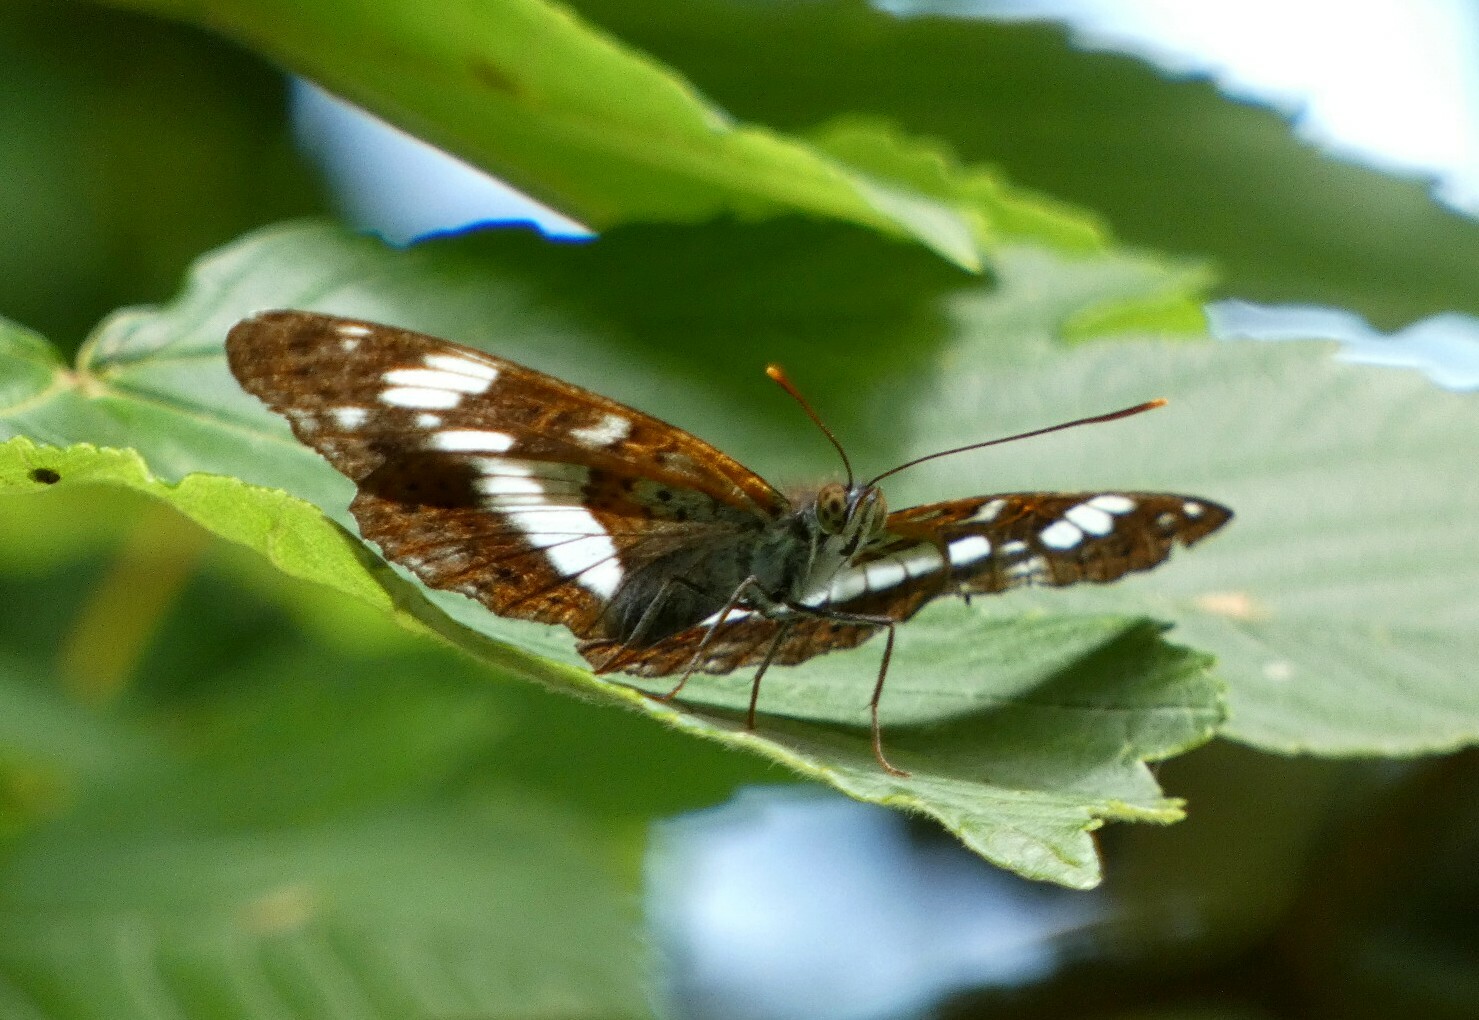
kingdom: Animalia
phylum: Arthropoda
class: Insecta
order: Lepidoptera
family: Nymphalidae
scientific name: Nymphalidae
